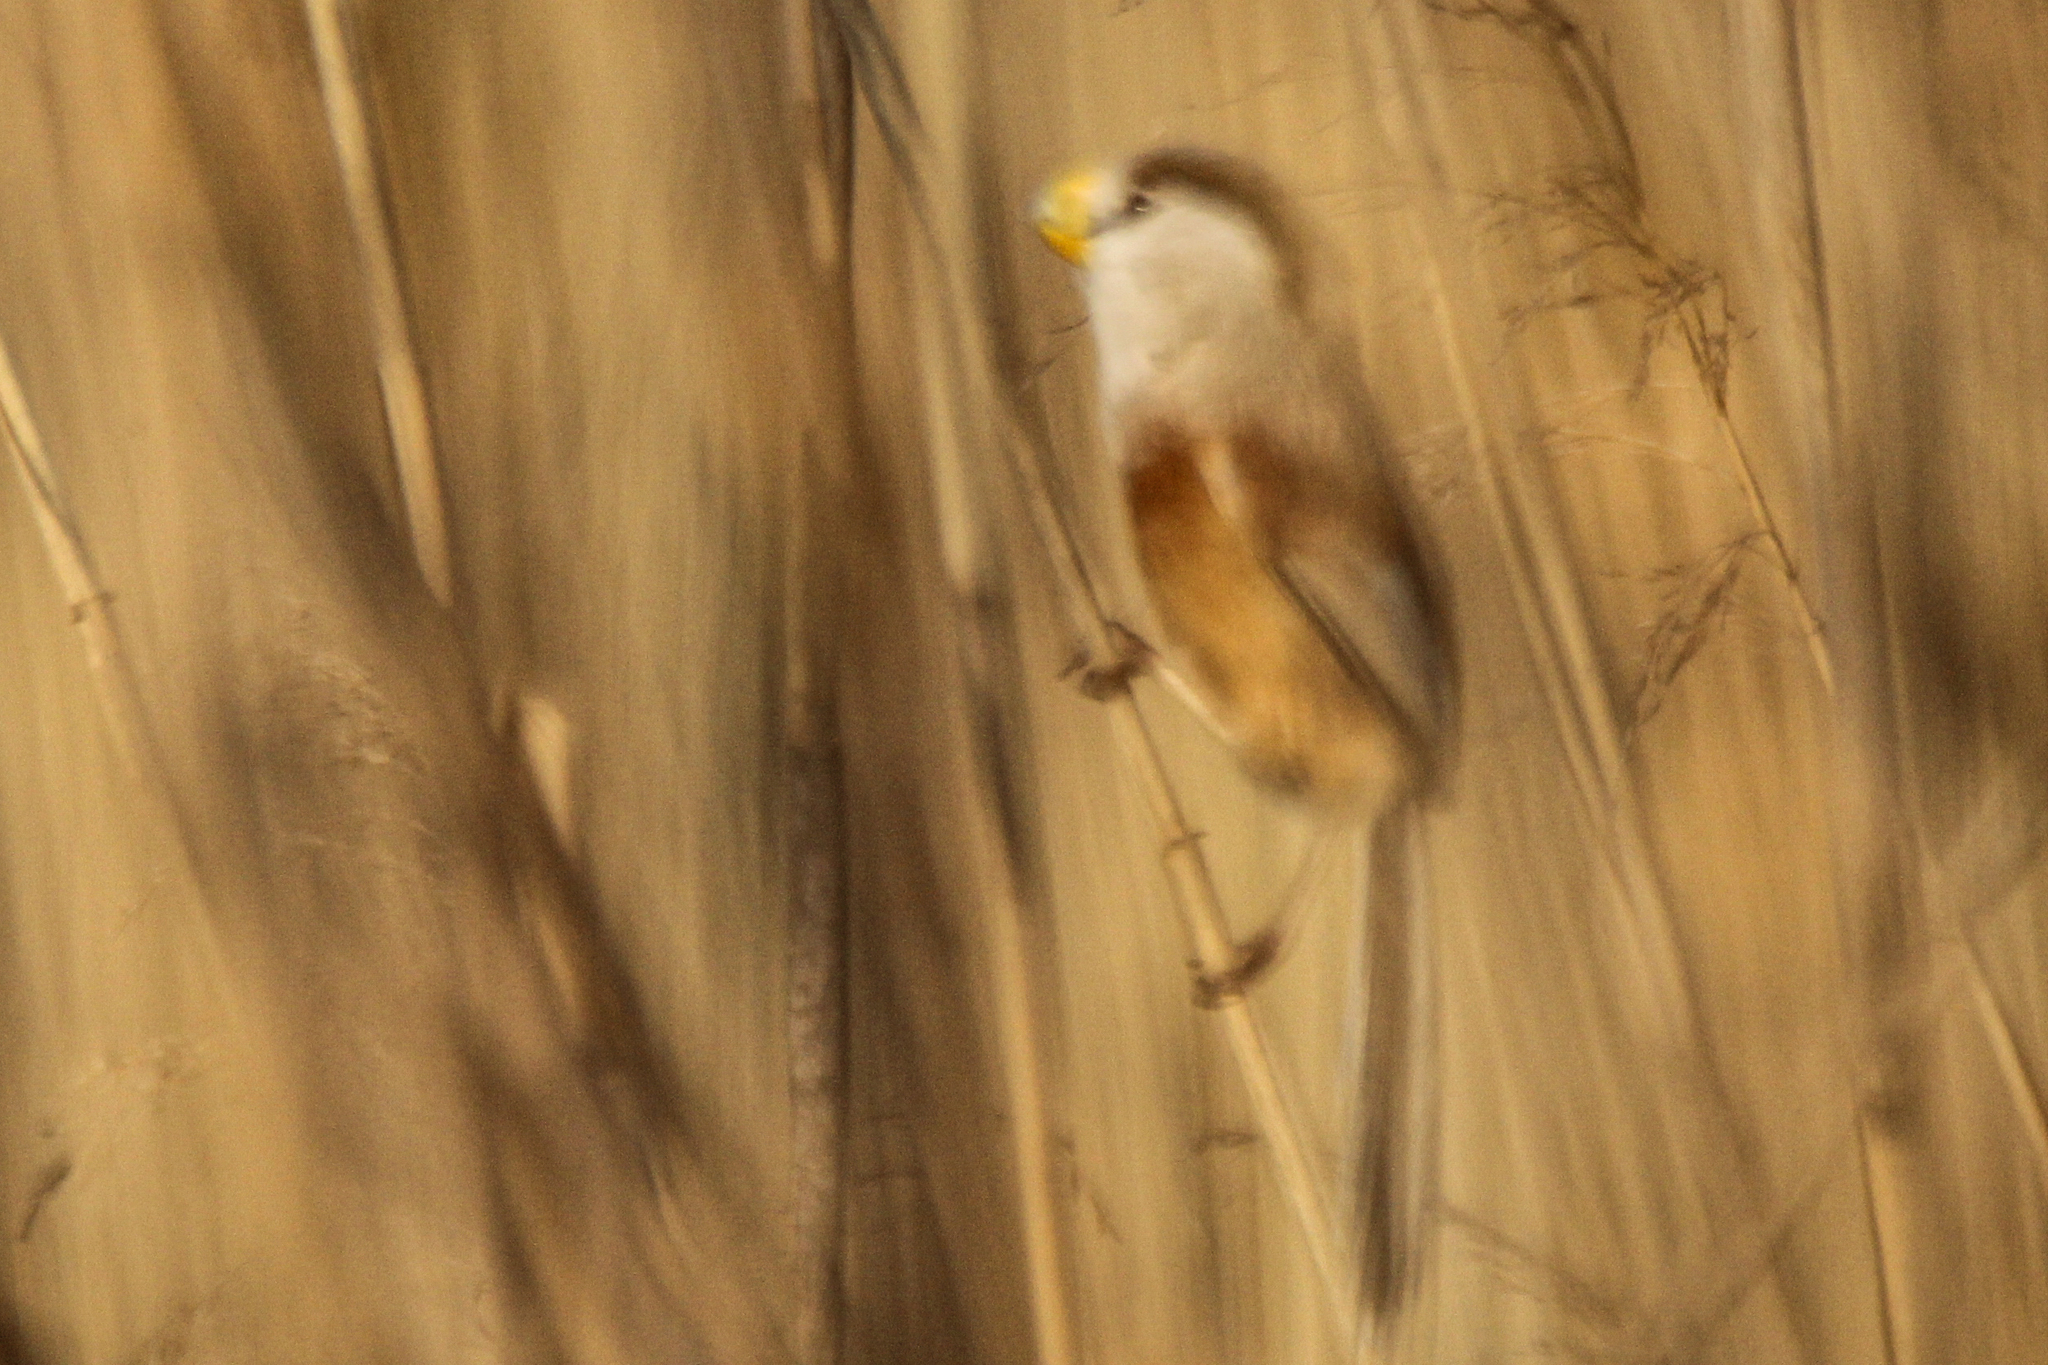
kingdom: Animalia
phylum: Chordata
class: Aves
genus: Calamornis
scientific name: Calamornis
